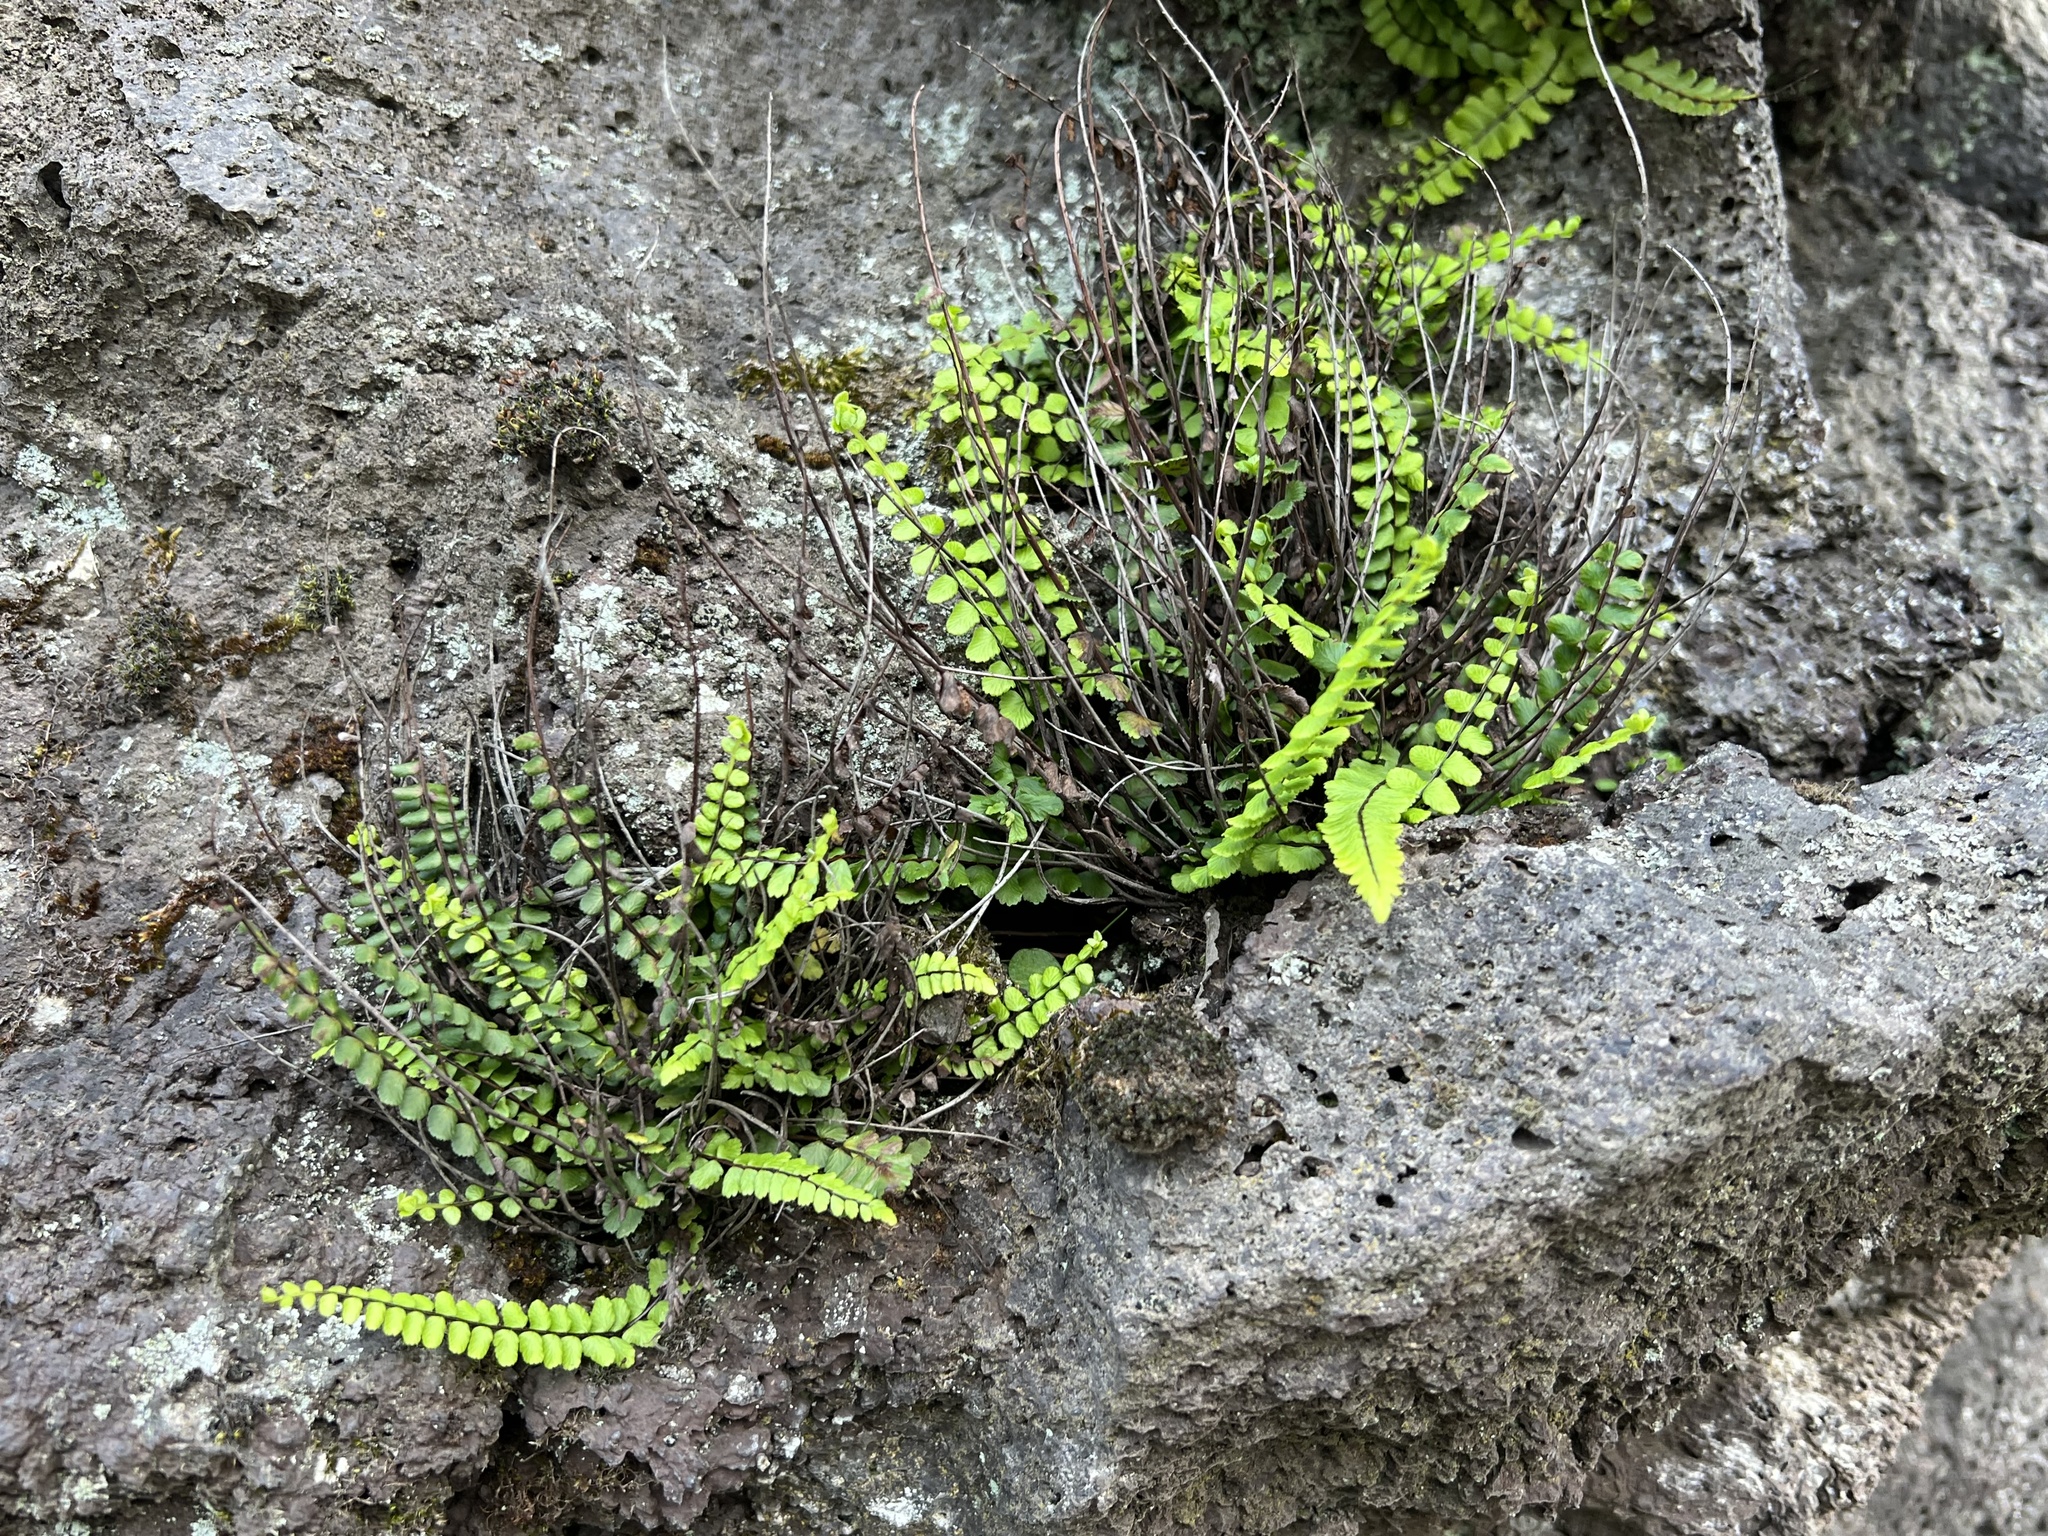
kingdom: Plantae
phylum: Tracheophyta
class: Polypodiopsida
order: Polypodiales
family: Aspleniaceae
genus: Asplenium
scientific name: Asplenium trichomanes
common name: Maidenhair spleenwort
